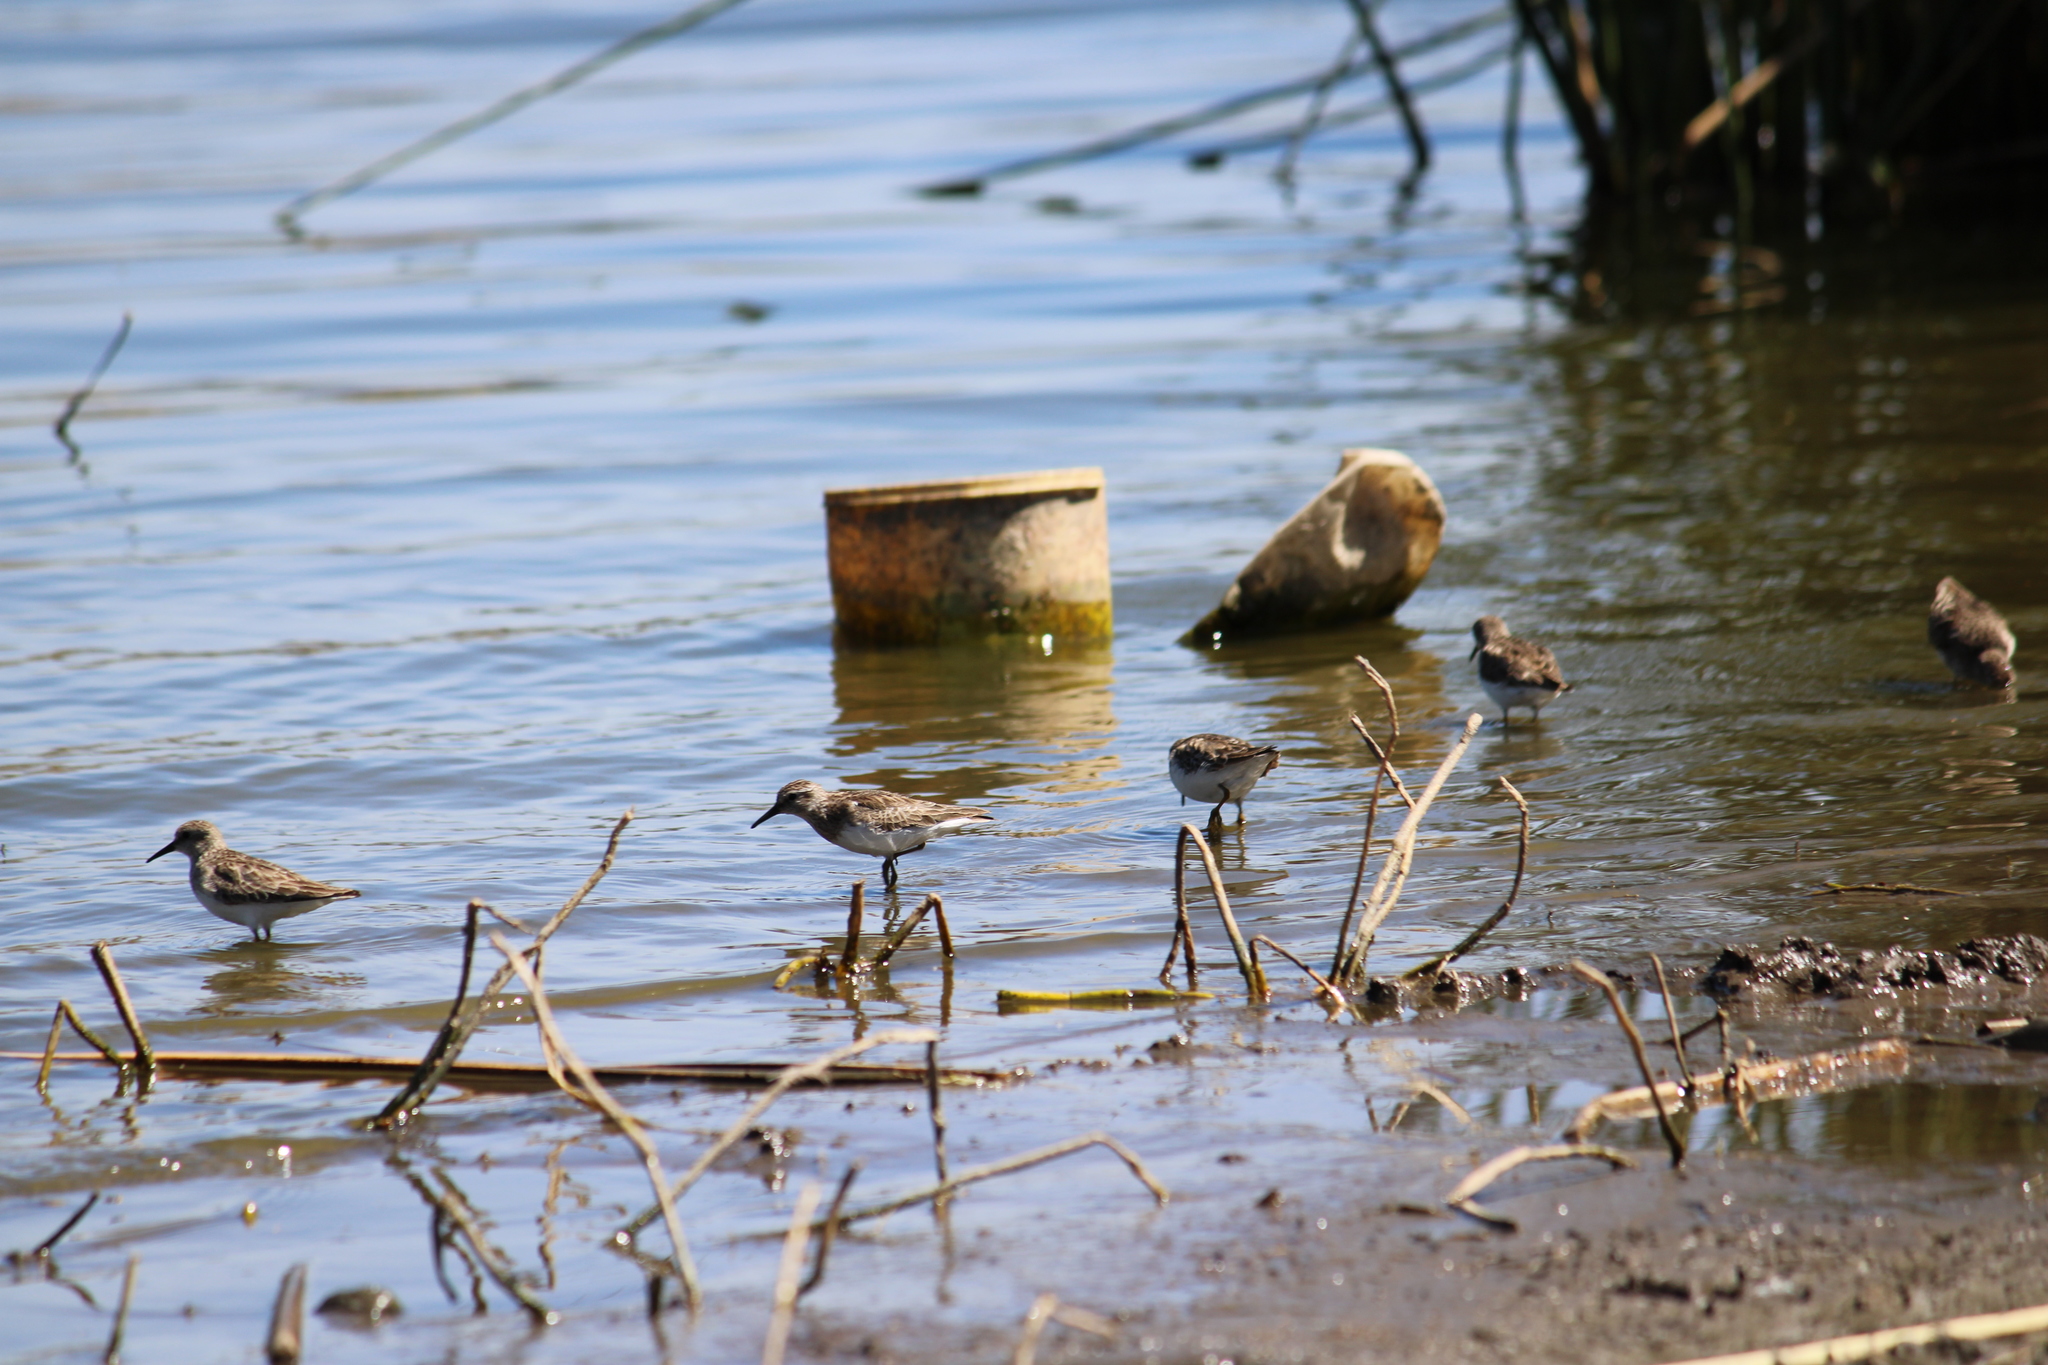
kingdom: Animalia
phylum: Chordata
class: Aves
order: Charadriiformes
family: Scolopacidae
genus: Calidris
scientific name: Calidris minutilla
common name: Least sandpiper
